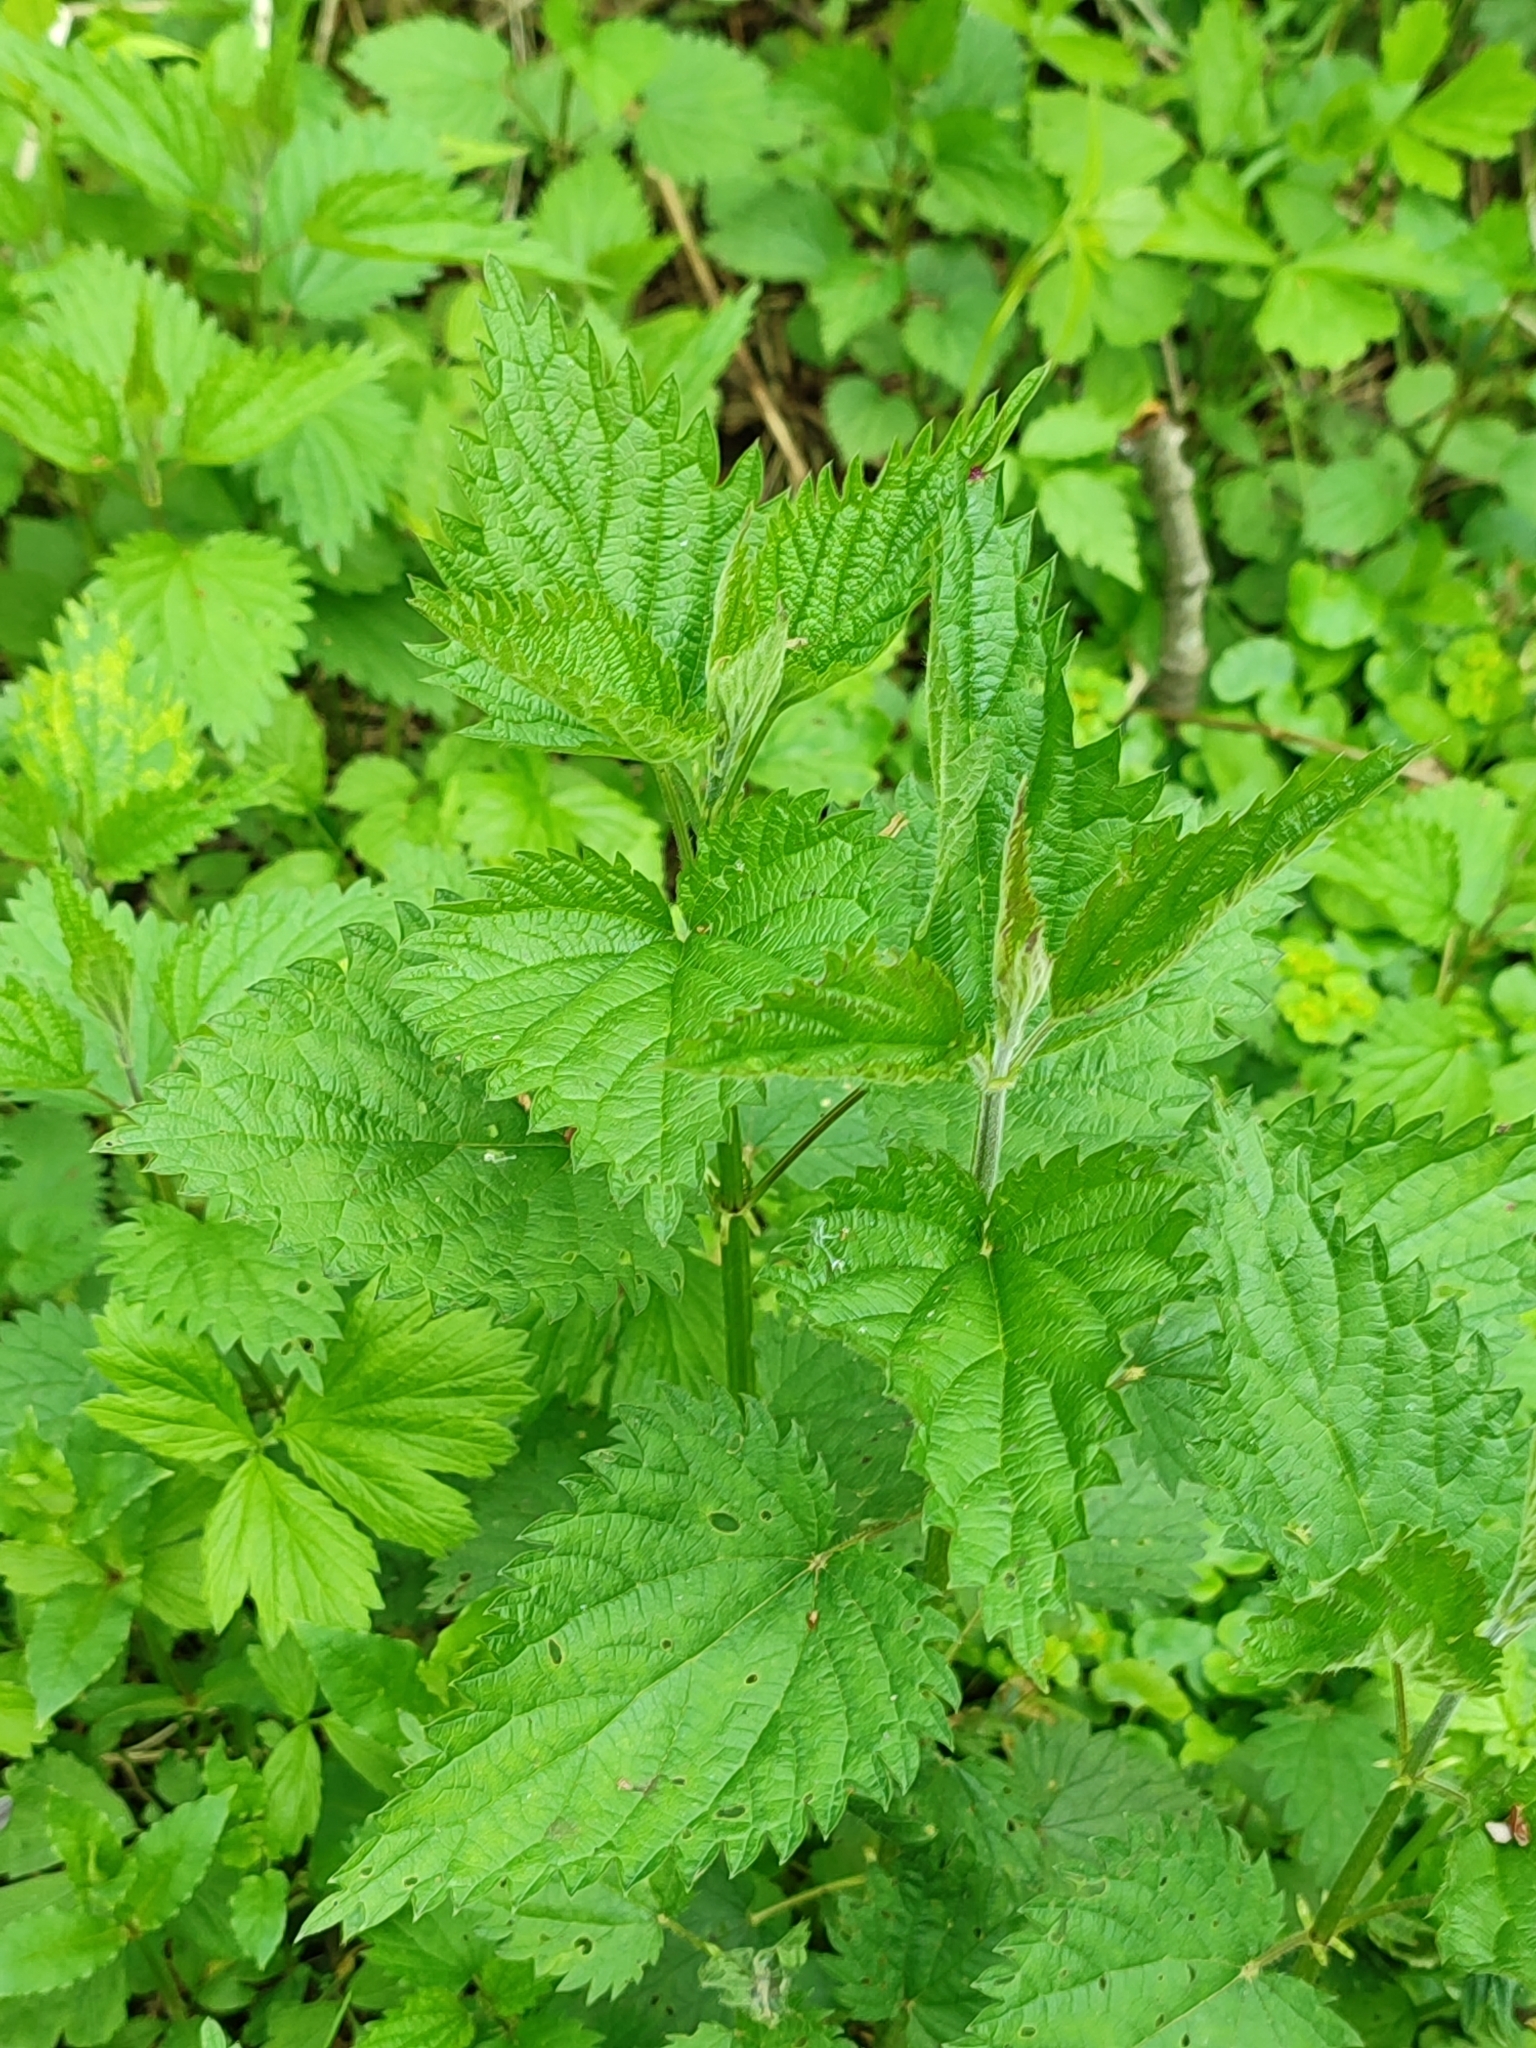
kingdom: Plantae
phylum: Tracheophyta
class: Magnoliopsida
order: Rosales
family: Urticaceae
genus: Urtica
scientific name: Urtica dioica
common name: Common nettle
